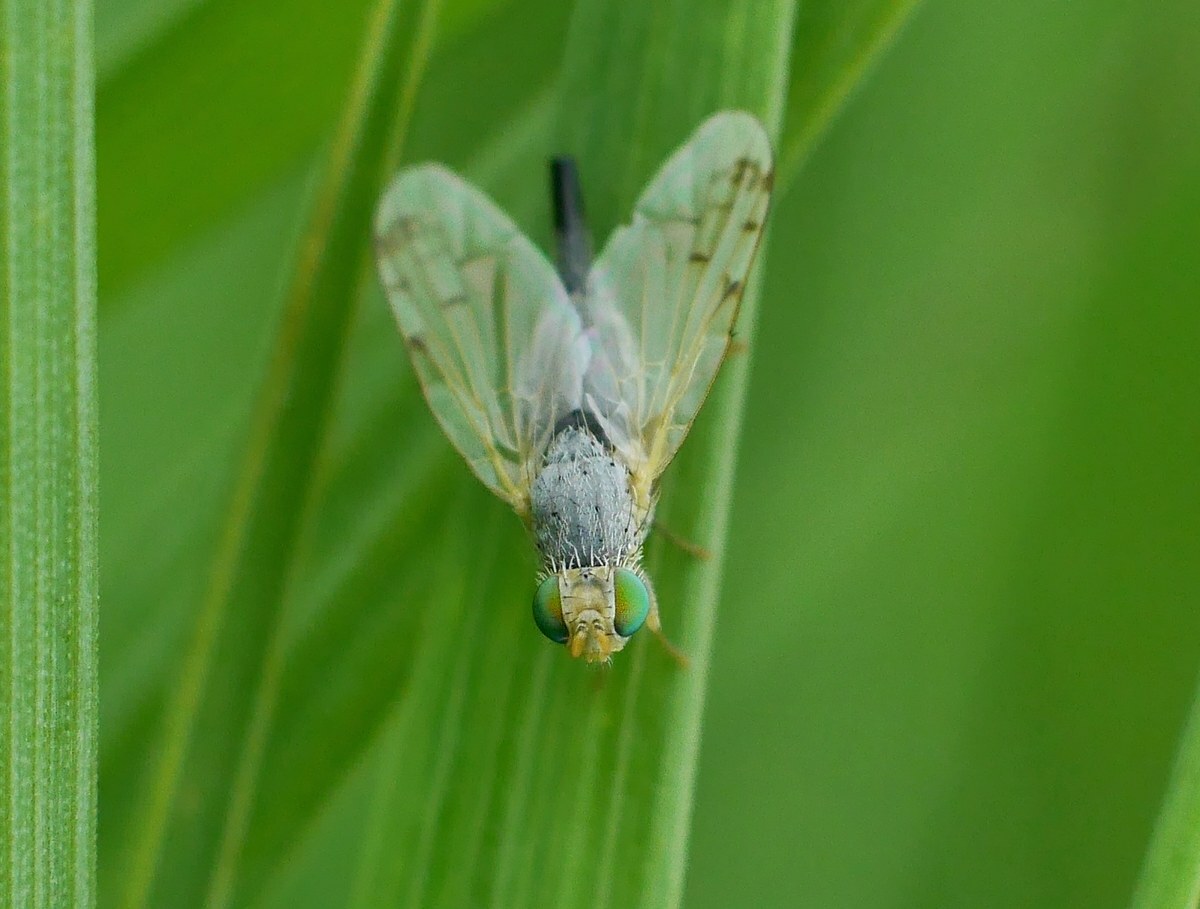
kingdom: Animalia
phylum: Arthropoda
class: Insecta
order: Diptera
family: Tephritidae
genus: Acanthiophilus
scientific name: Acanthiophilus helianthi
